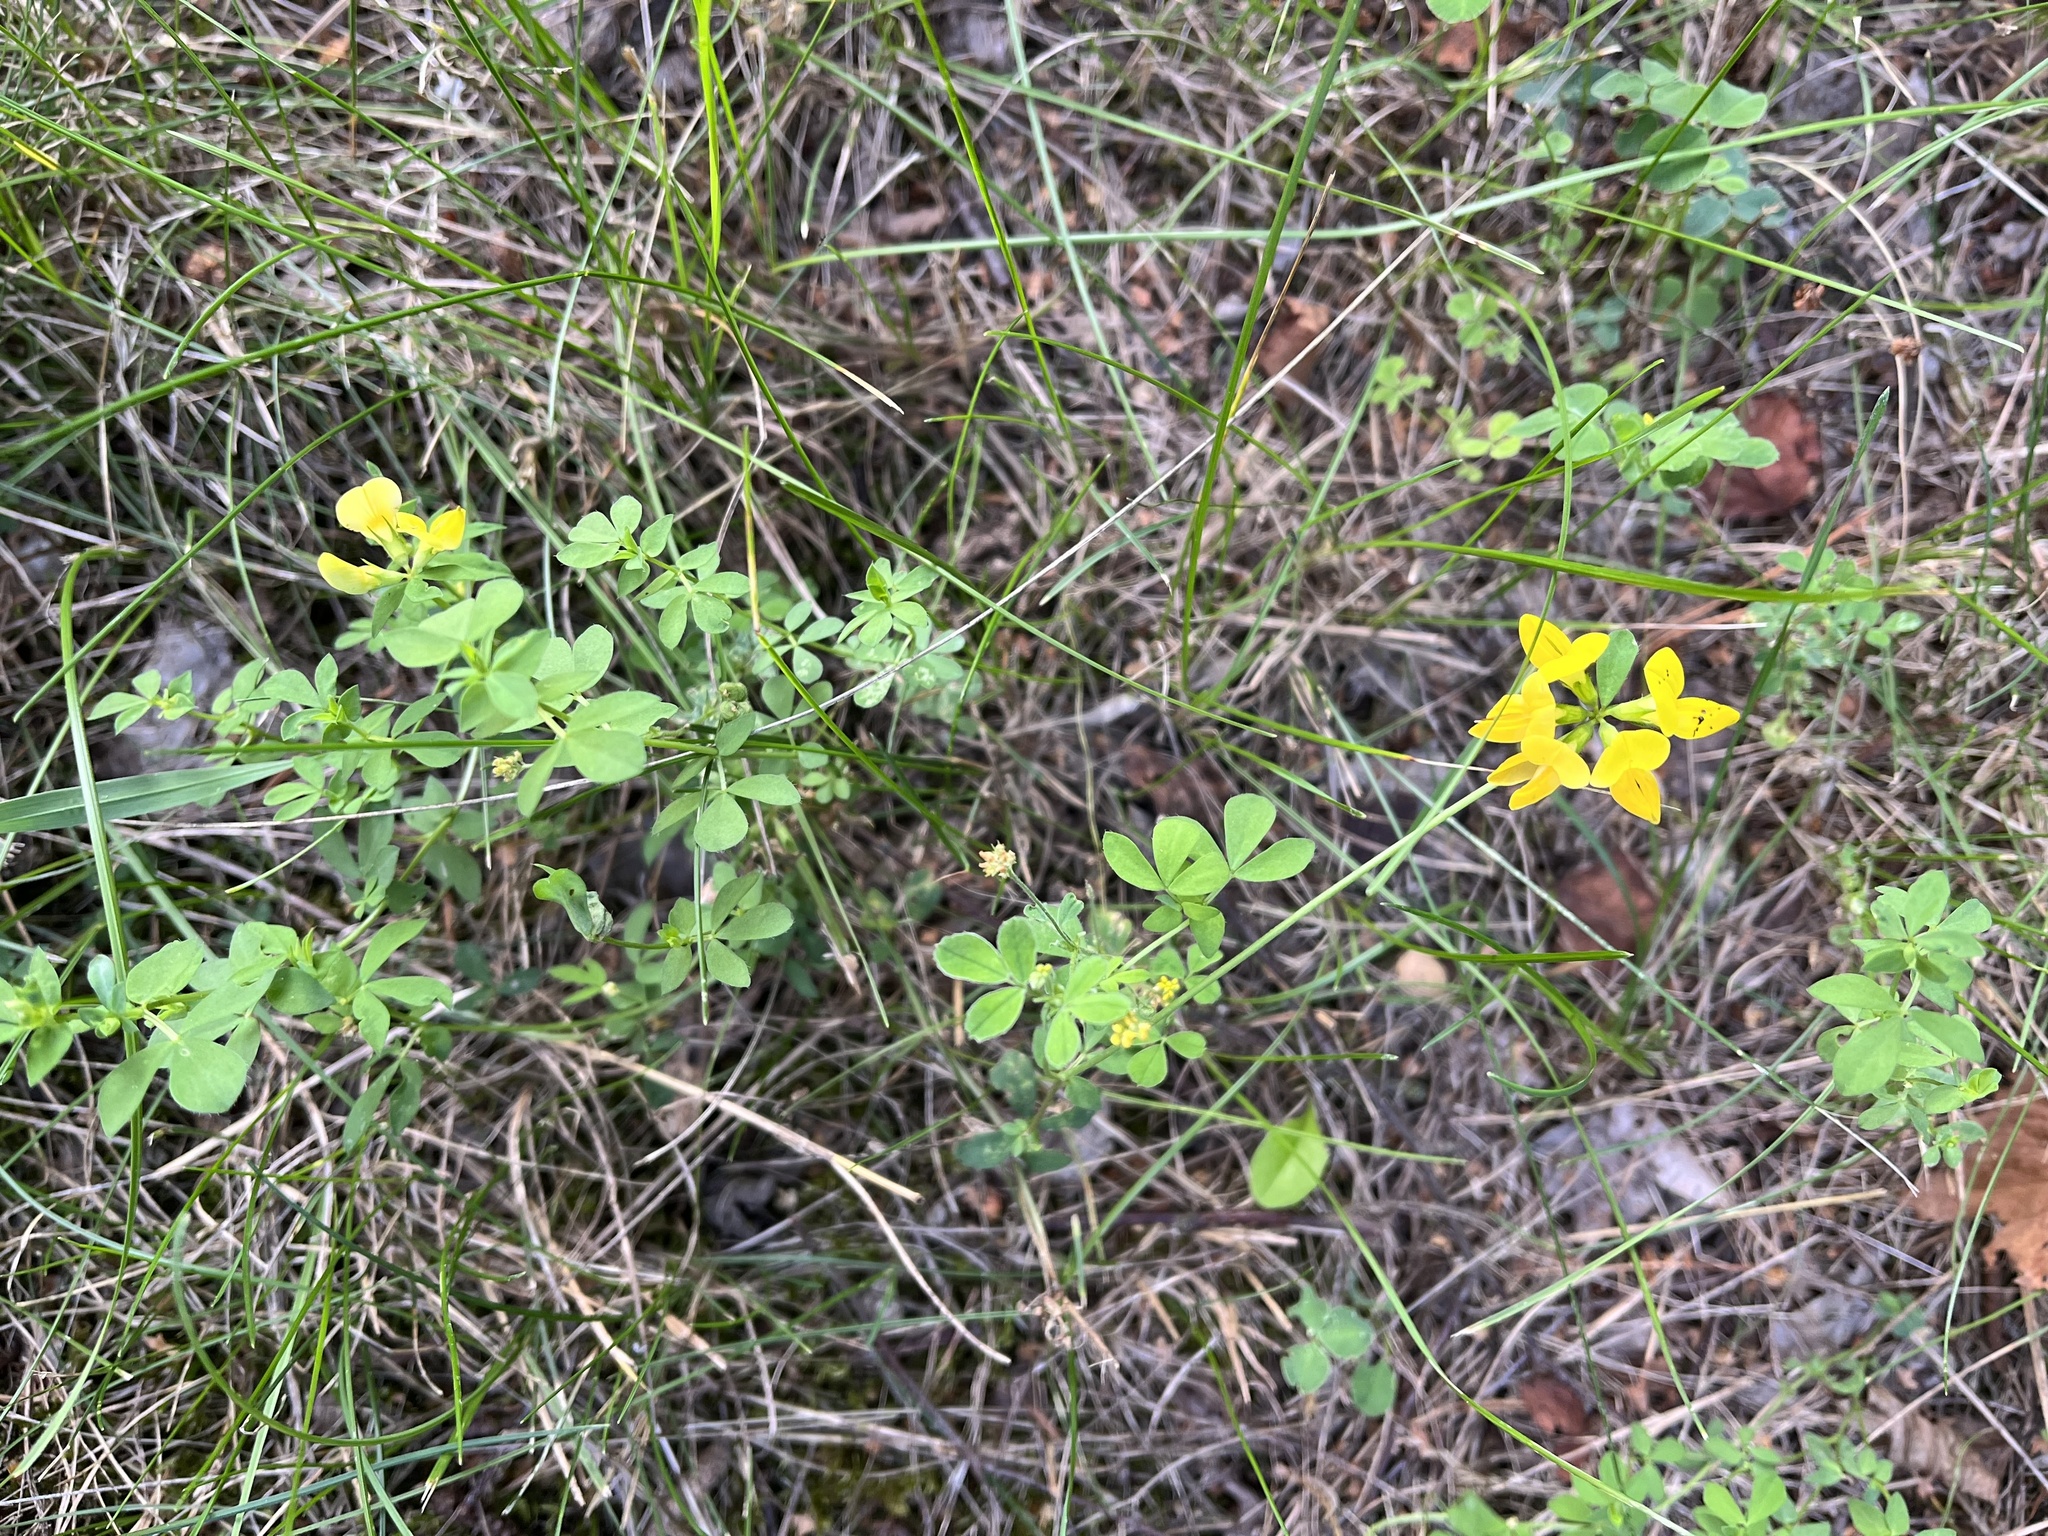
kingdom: Plantae
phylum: Tracheophyta
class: Magnoliopsida
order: Fabales
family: Fabaceae
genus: Lotus
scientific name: Lotus corniculatus
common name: Common bird's-foot-trefoil
